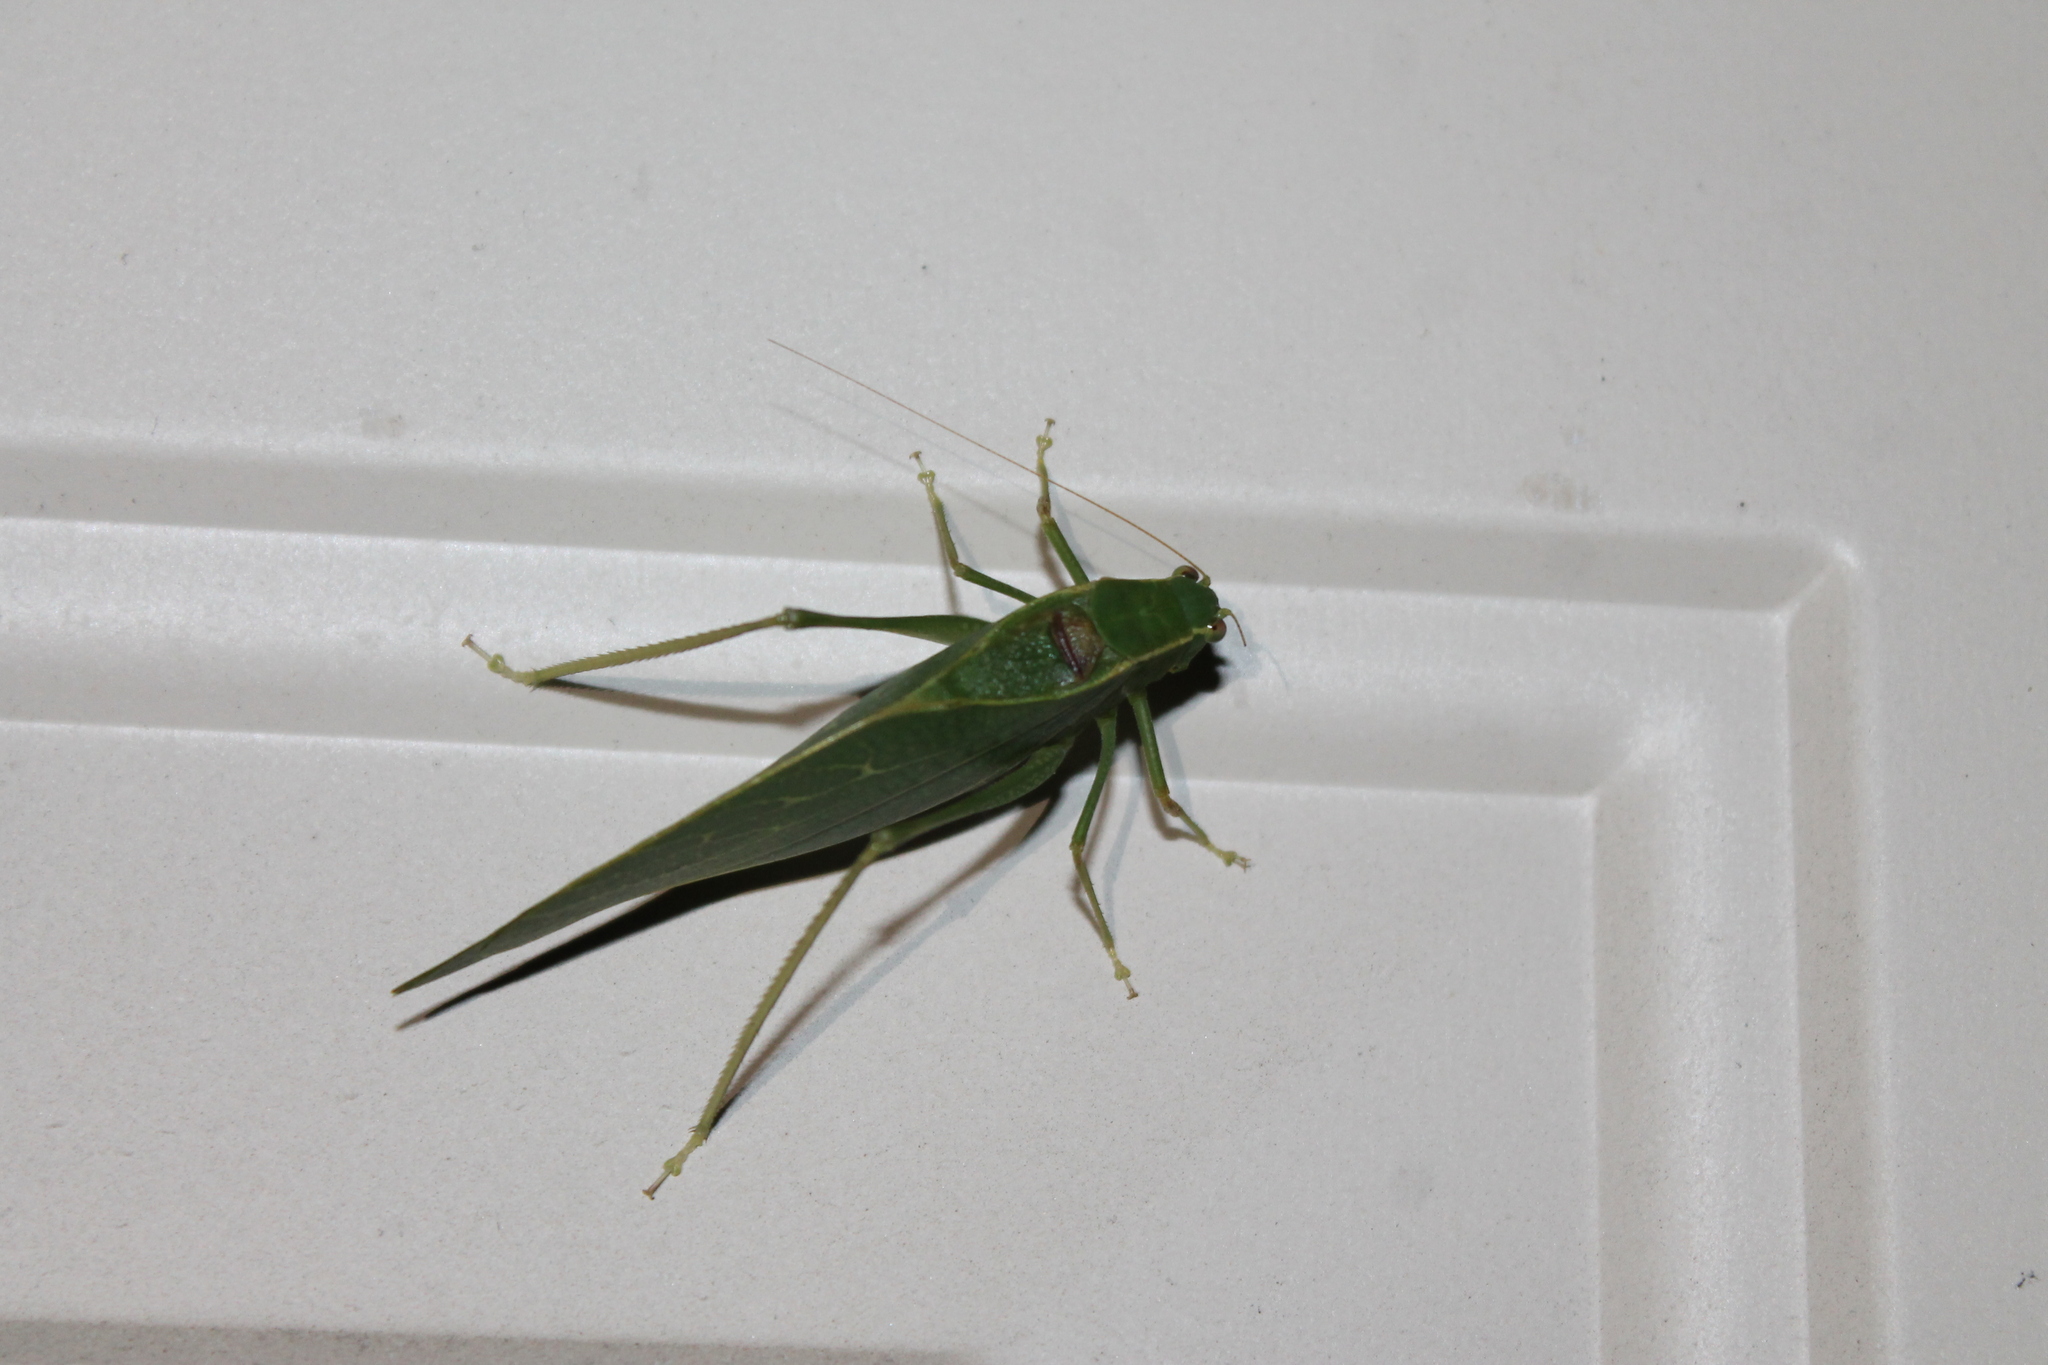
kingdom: Animalia
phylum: Arthropoda
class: Insecta
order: Orthoptera
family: Tettigoniidae
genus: Microcentrum
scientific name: Microcentrum retinerve
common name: Angular-winged katydid
